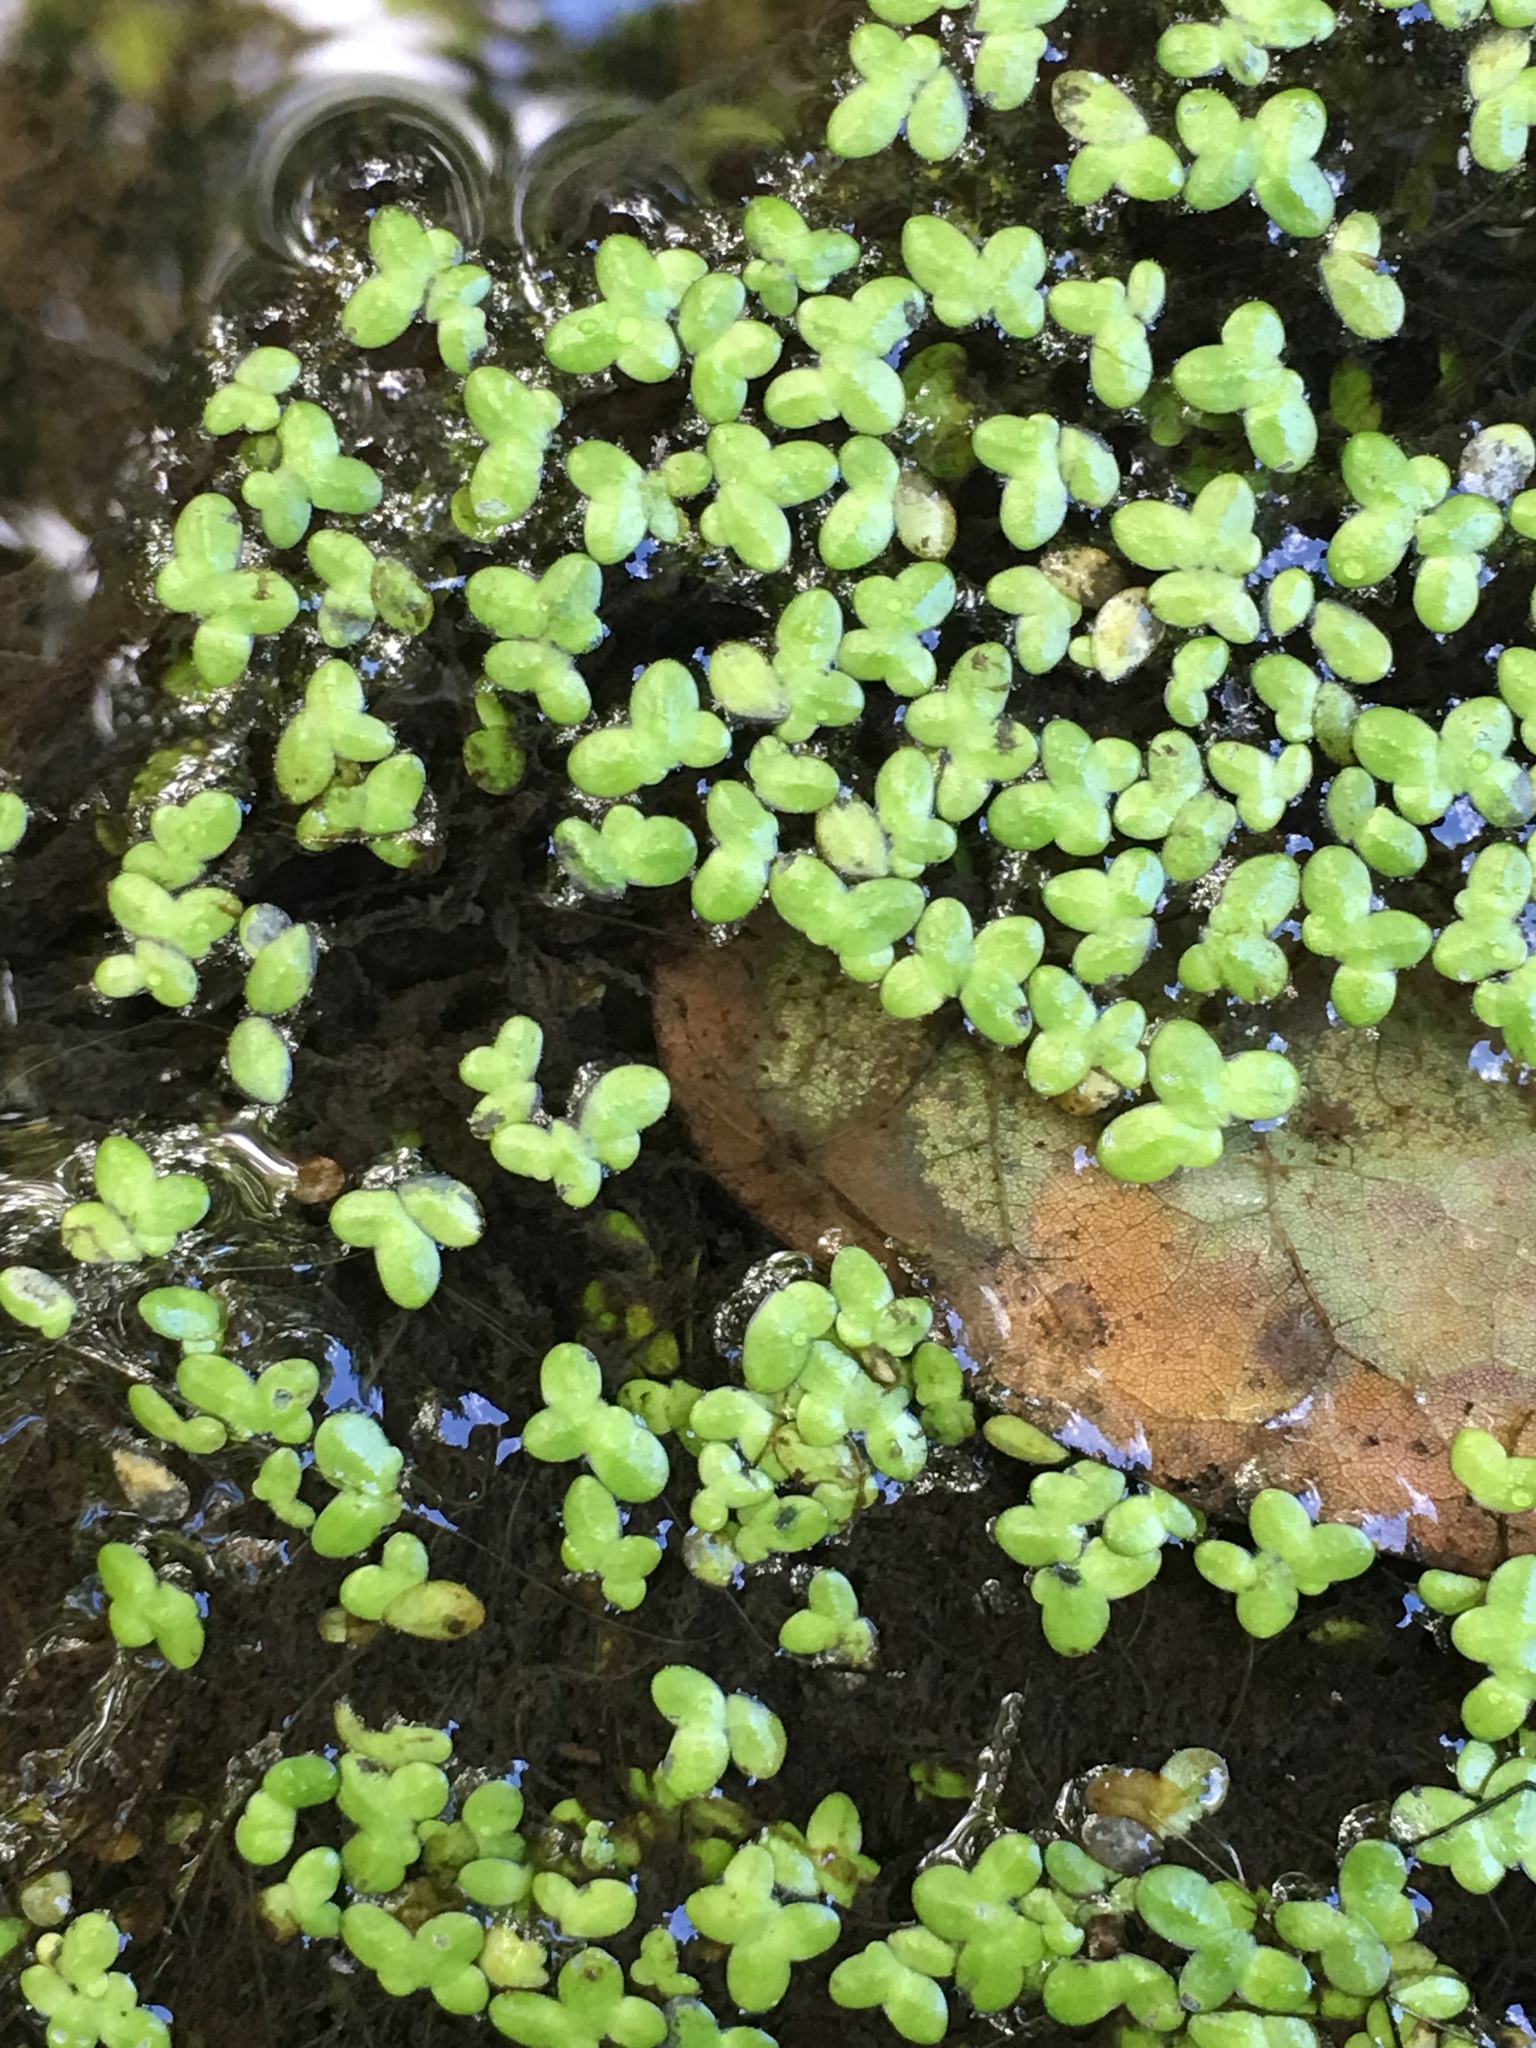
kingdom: Plantae
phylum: Tracheophyta
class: Liliopsida
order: Alismatales
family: Araceae
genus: Lemna
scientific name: Lemna minor
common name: Common duckweed
